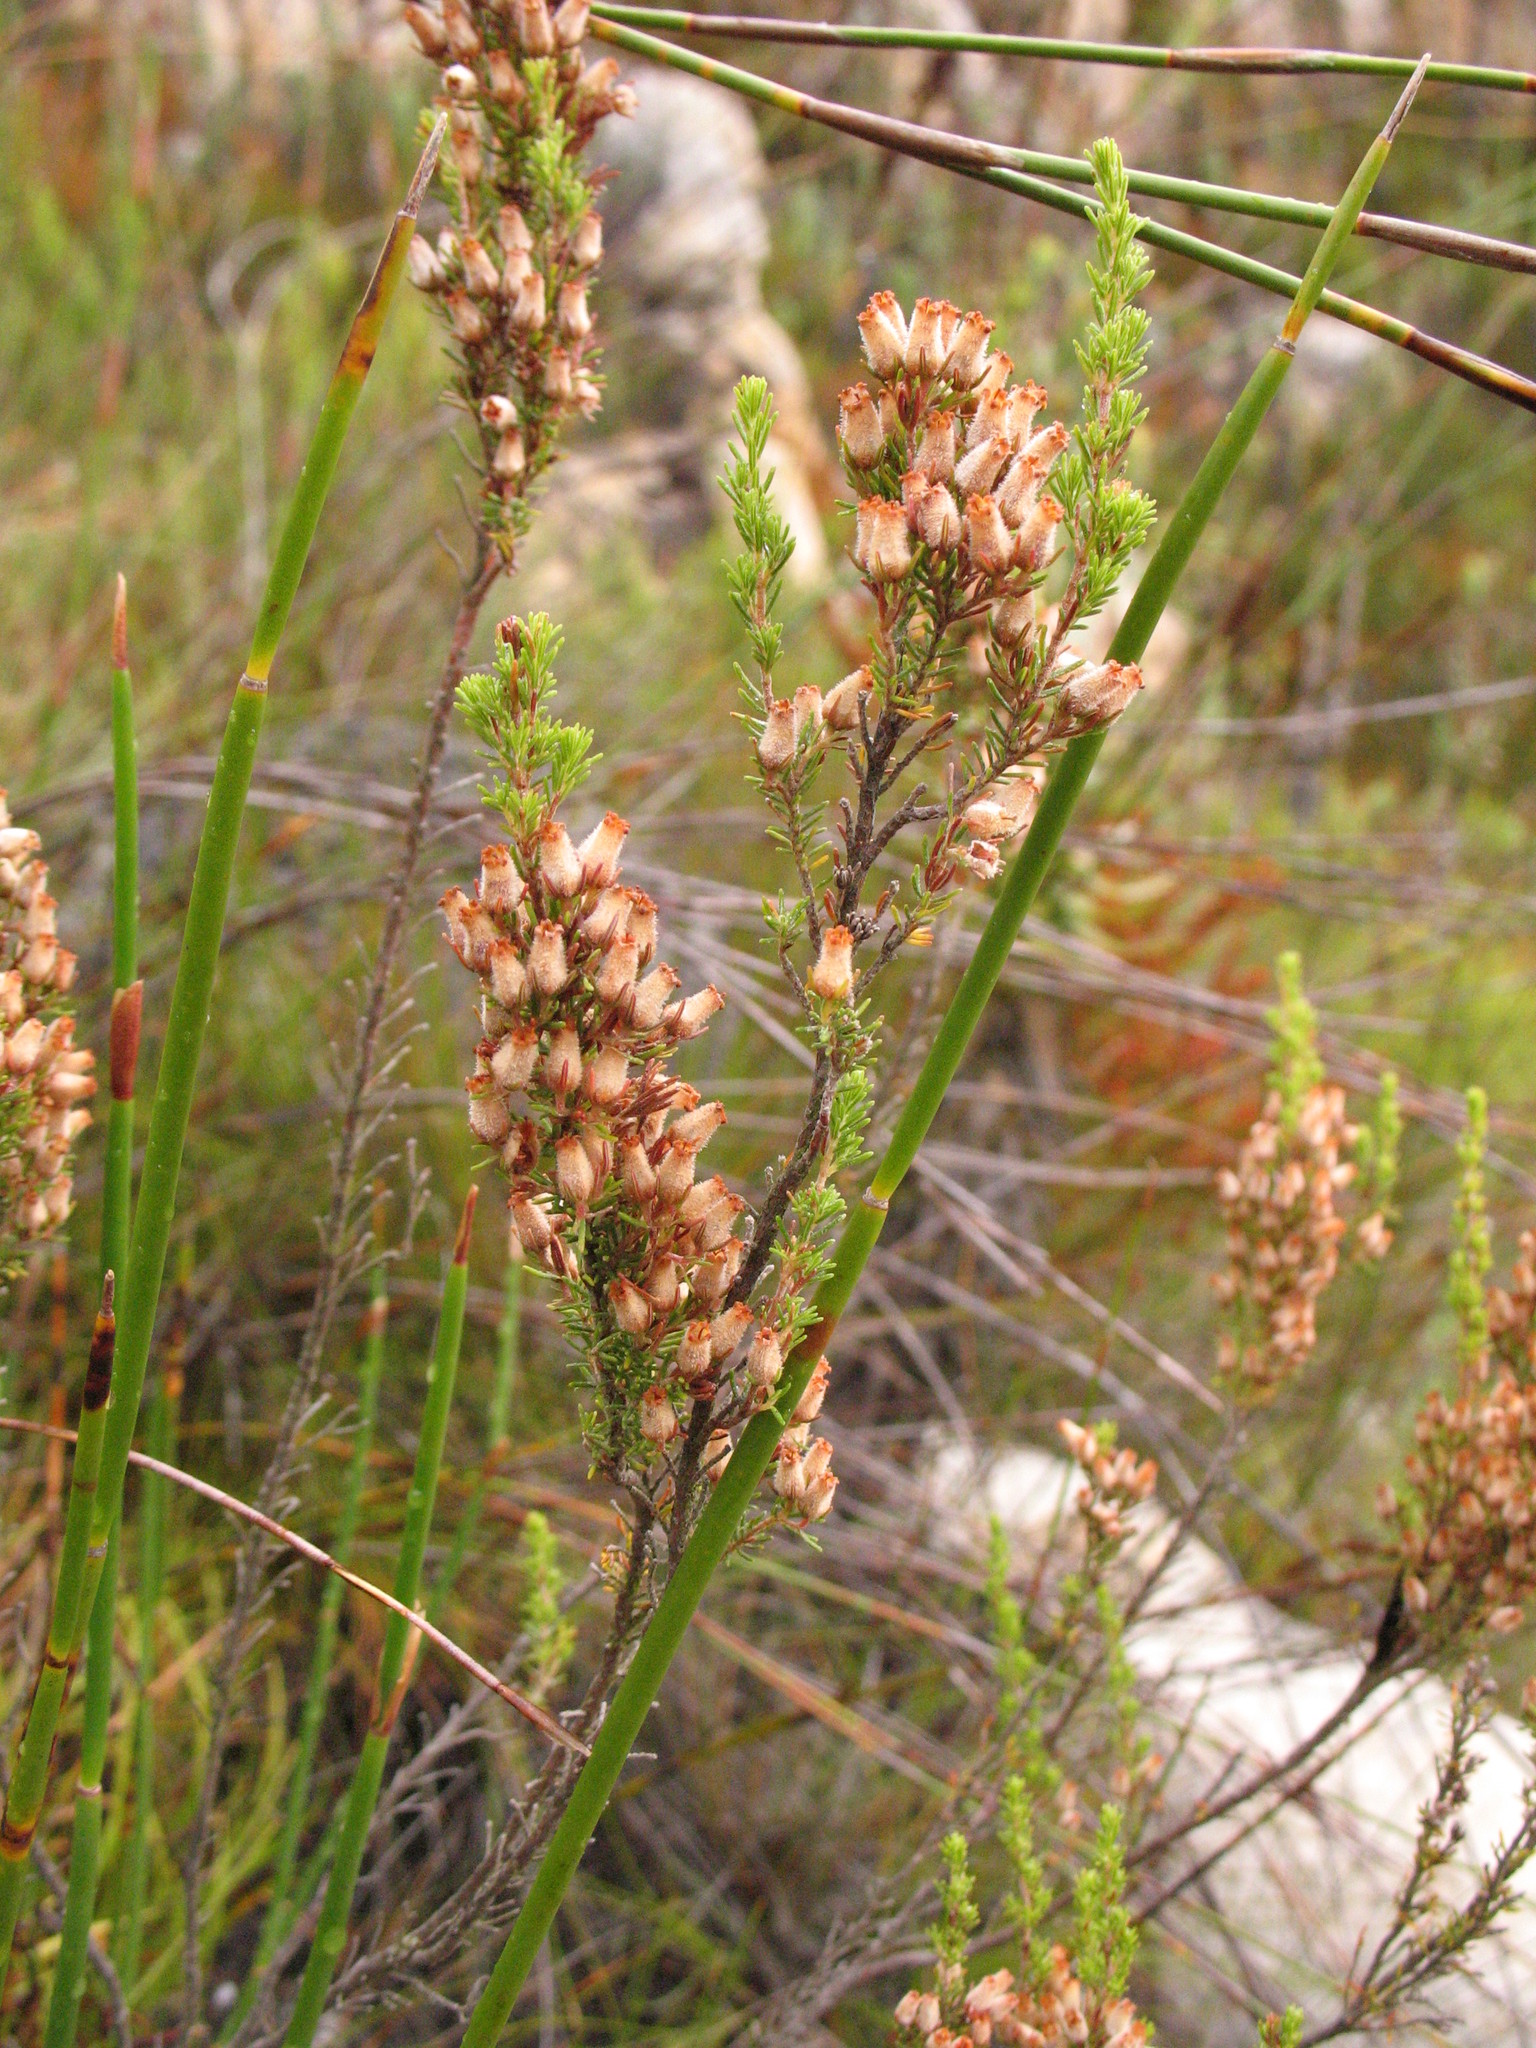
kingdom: Plantae
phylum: Tracheophyta
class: Magnoliopsida
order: Ericales
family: Ericaceae
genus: Erica
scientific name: Erica pubigera
